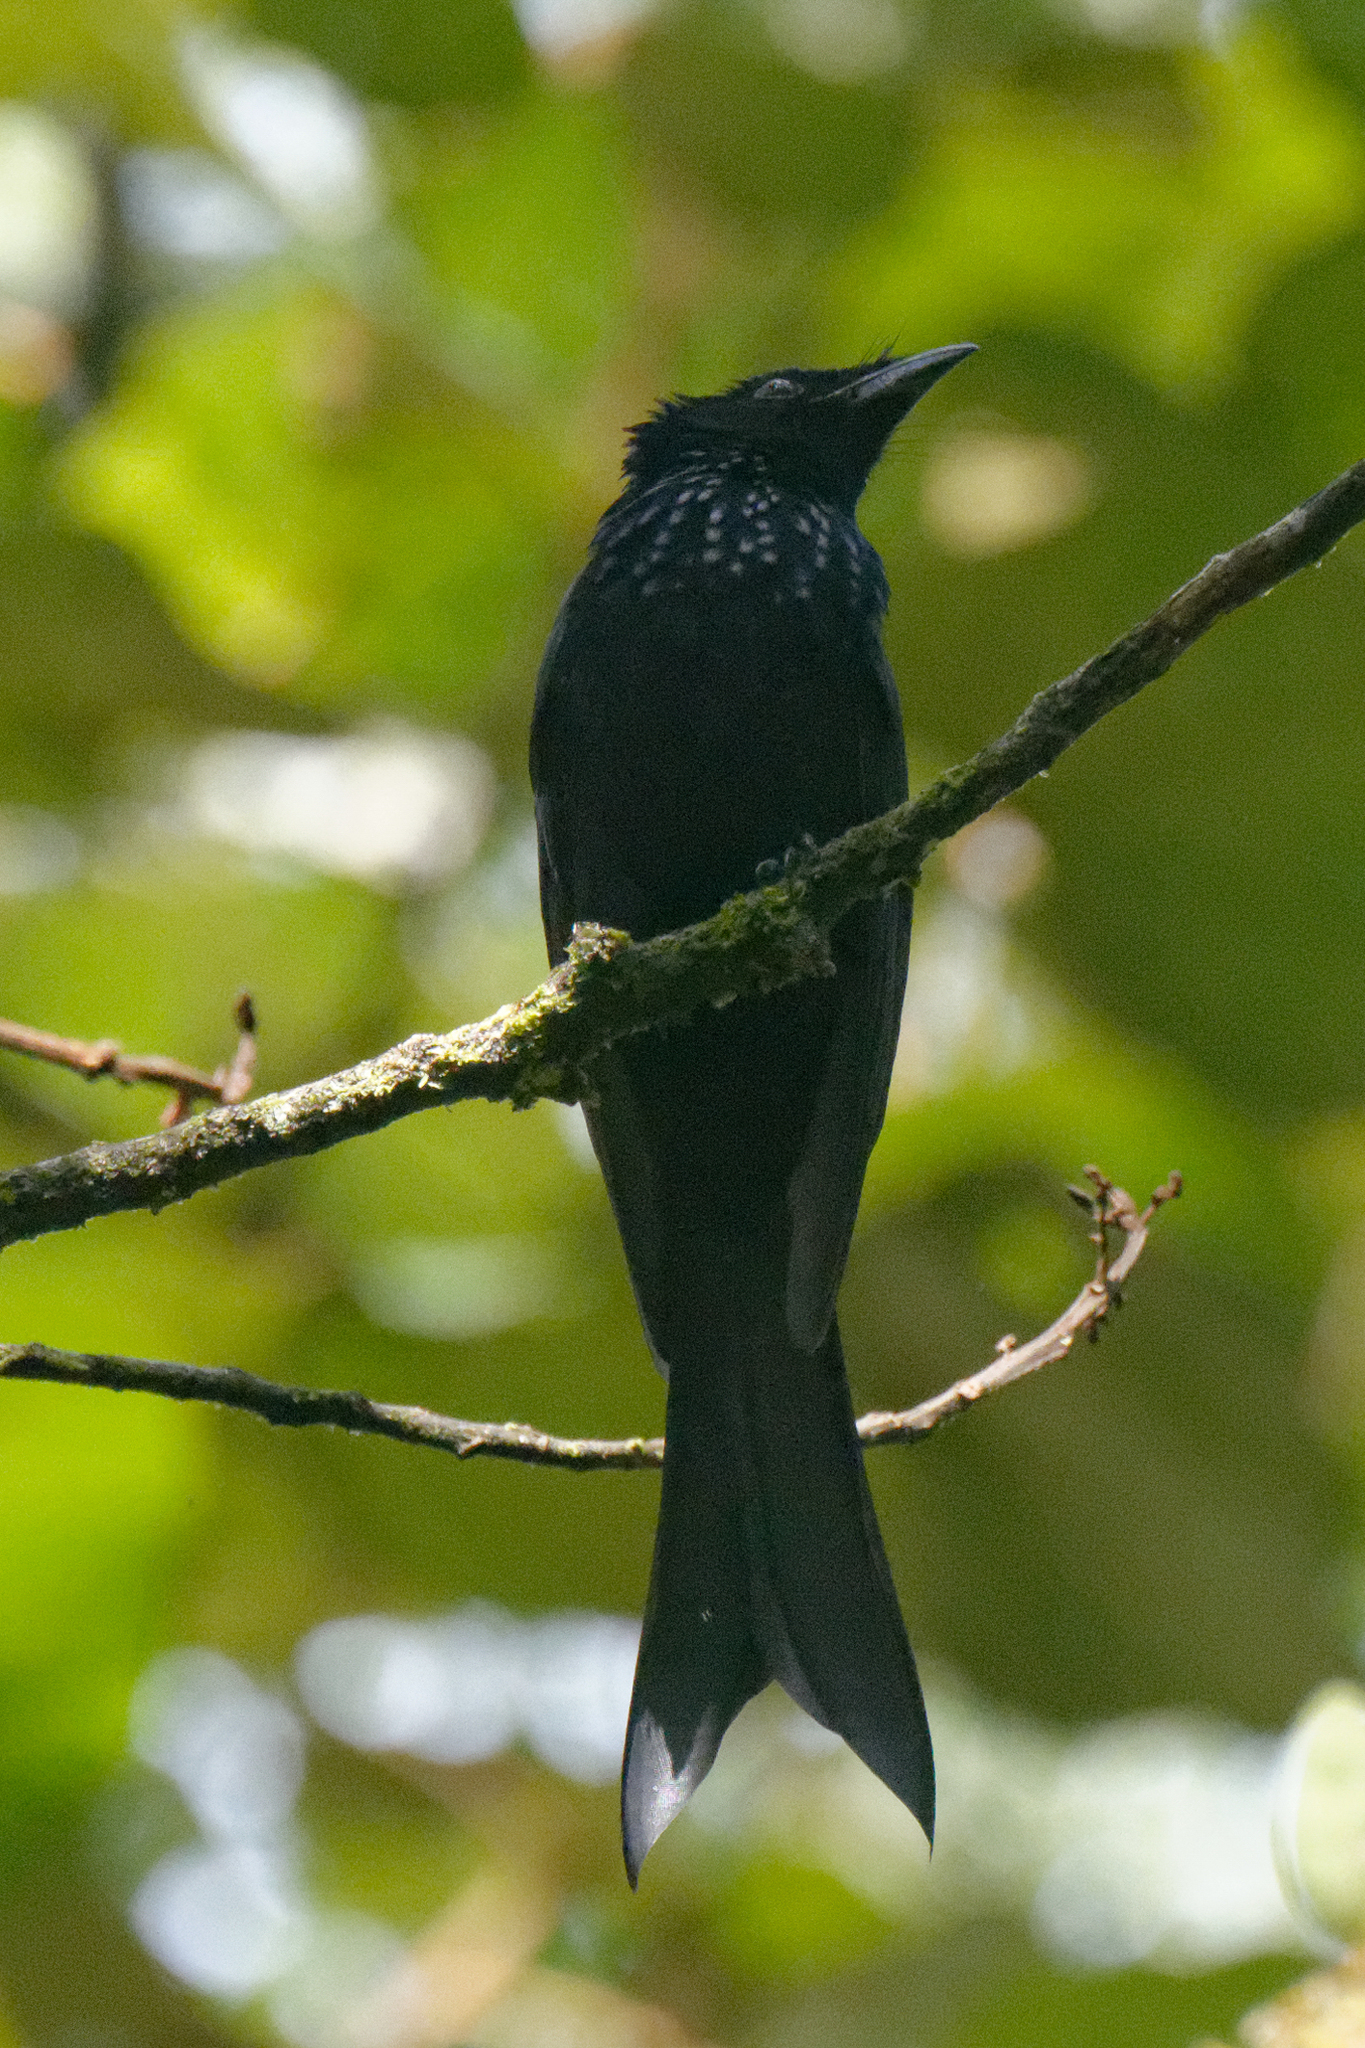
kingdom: Animalia
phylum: Chordata
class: Aves
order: Passeriformes
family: Dicruridae
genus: Dicrurus
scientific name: Dicrurus montanus
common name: Sulawesi drongo
